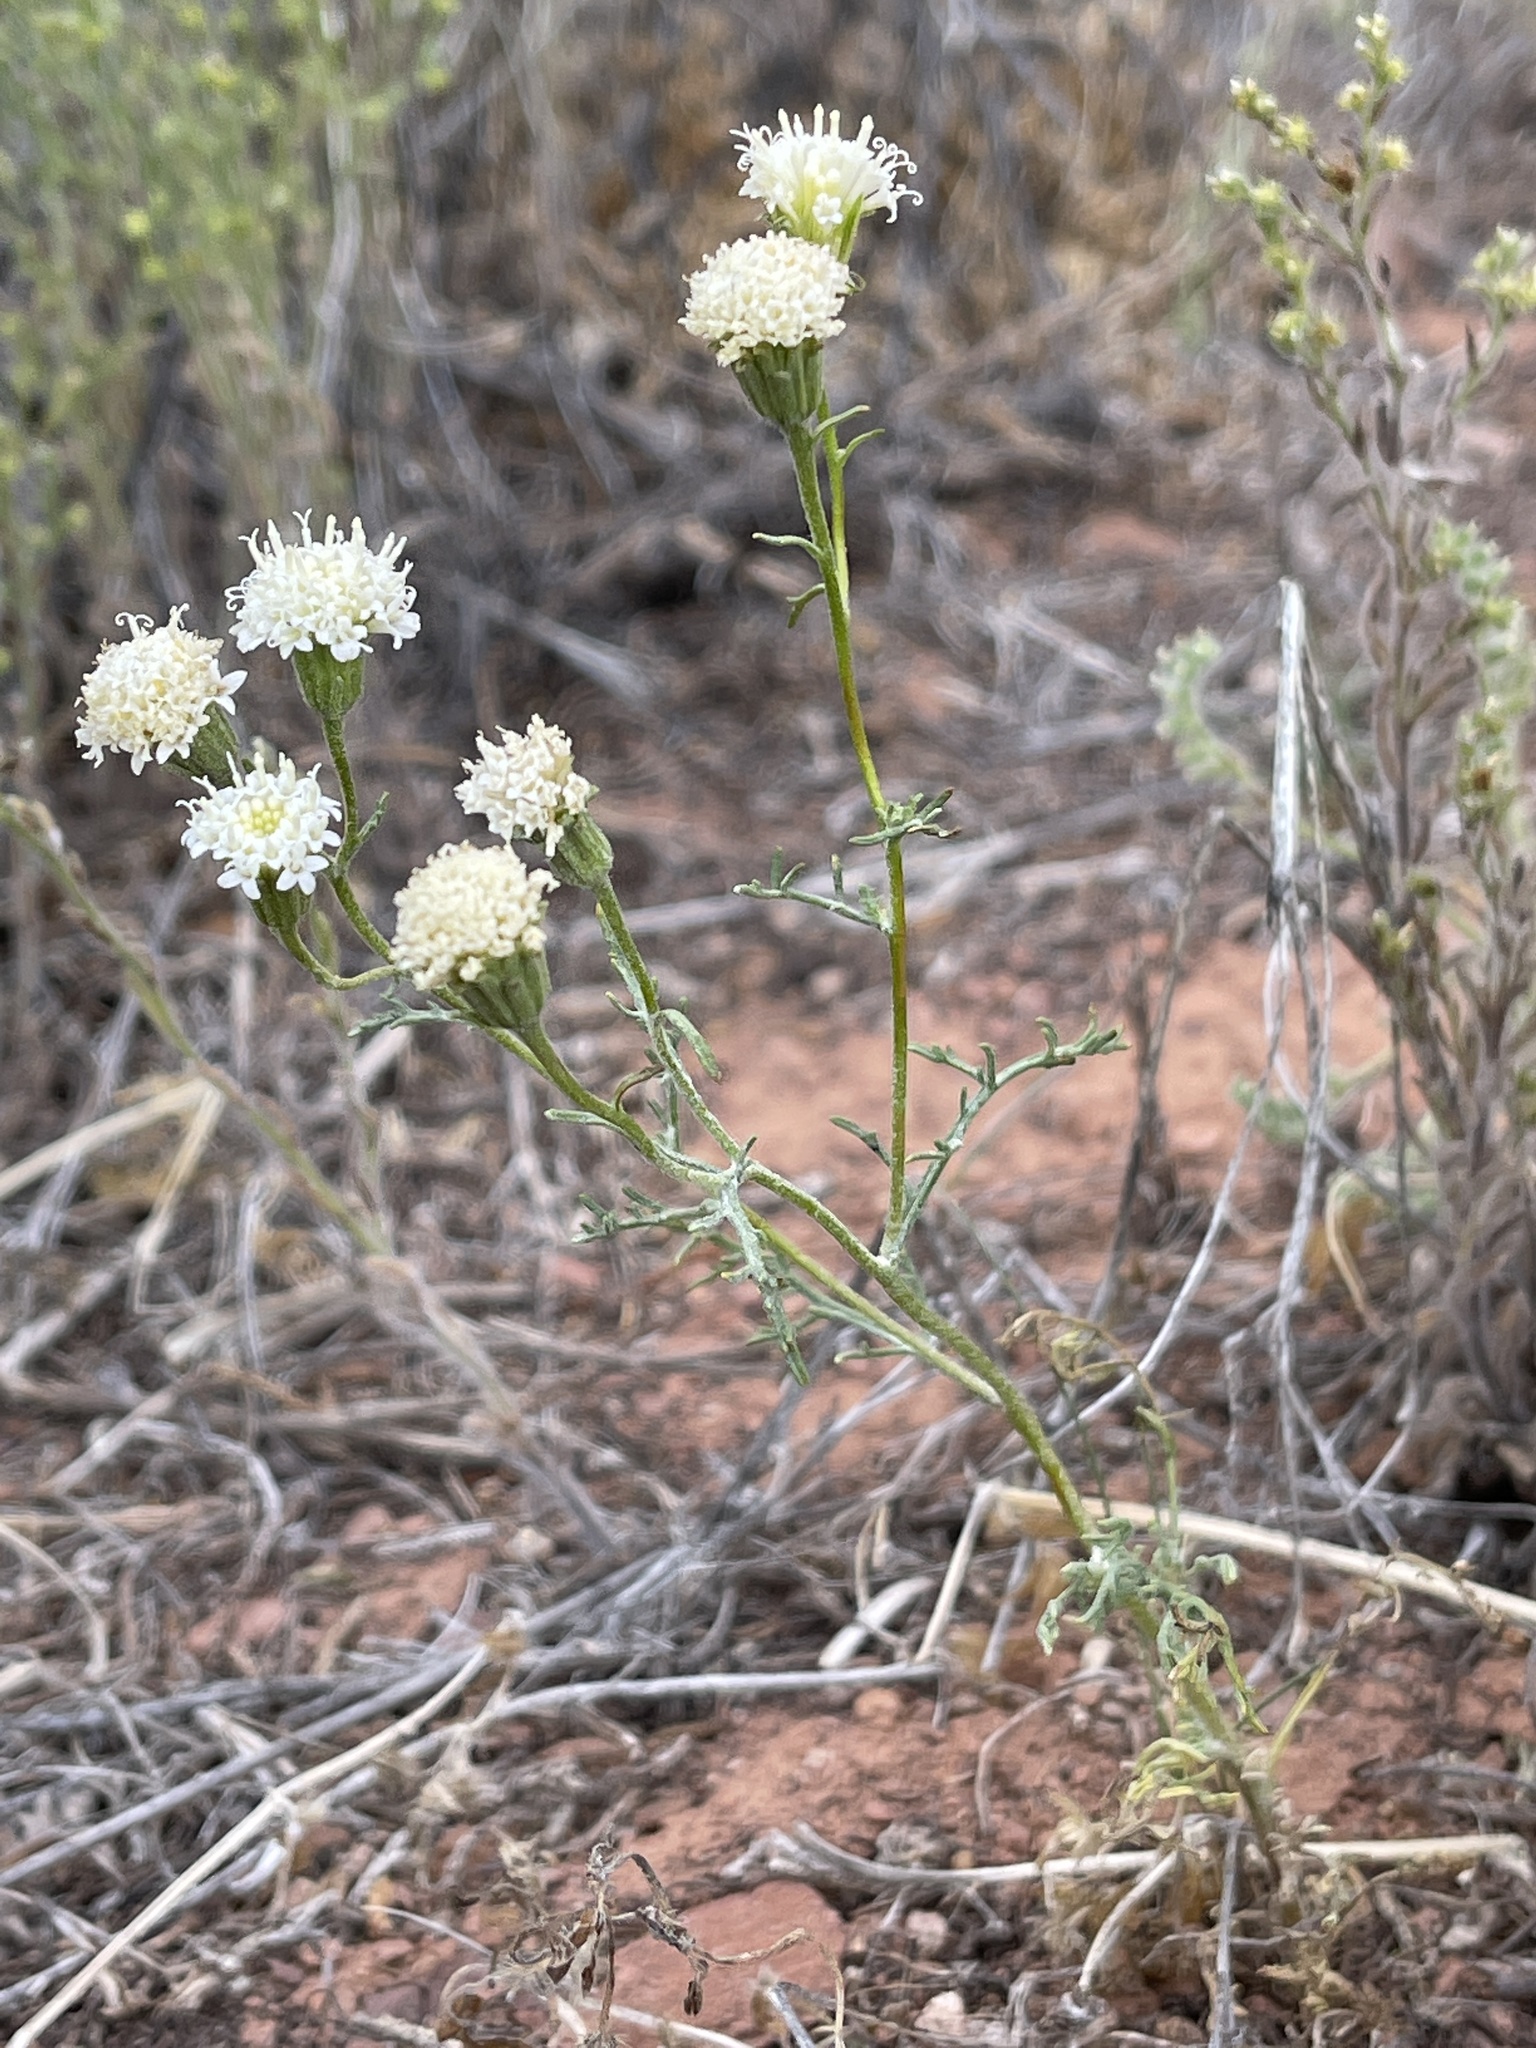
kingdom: Plantae
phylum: Tracheophyta
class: Magnoliopsida
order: Asterales
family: Asteraceae
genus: Chaenactis
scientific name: Chaenactis stevioides
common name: Desert pincushion
